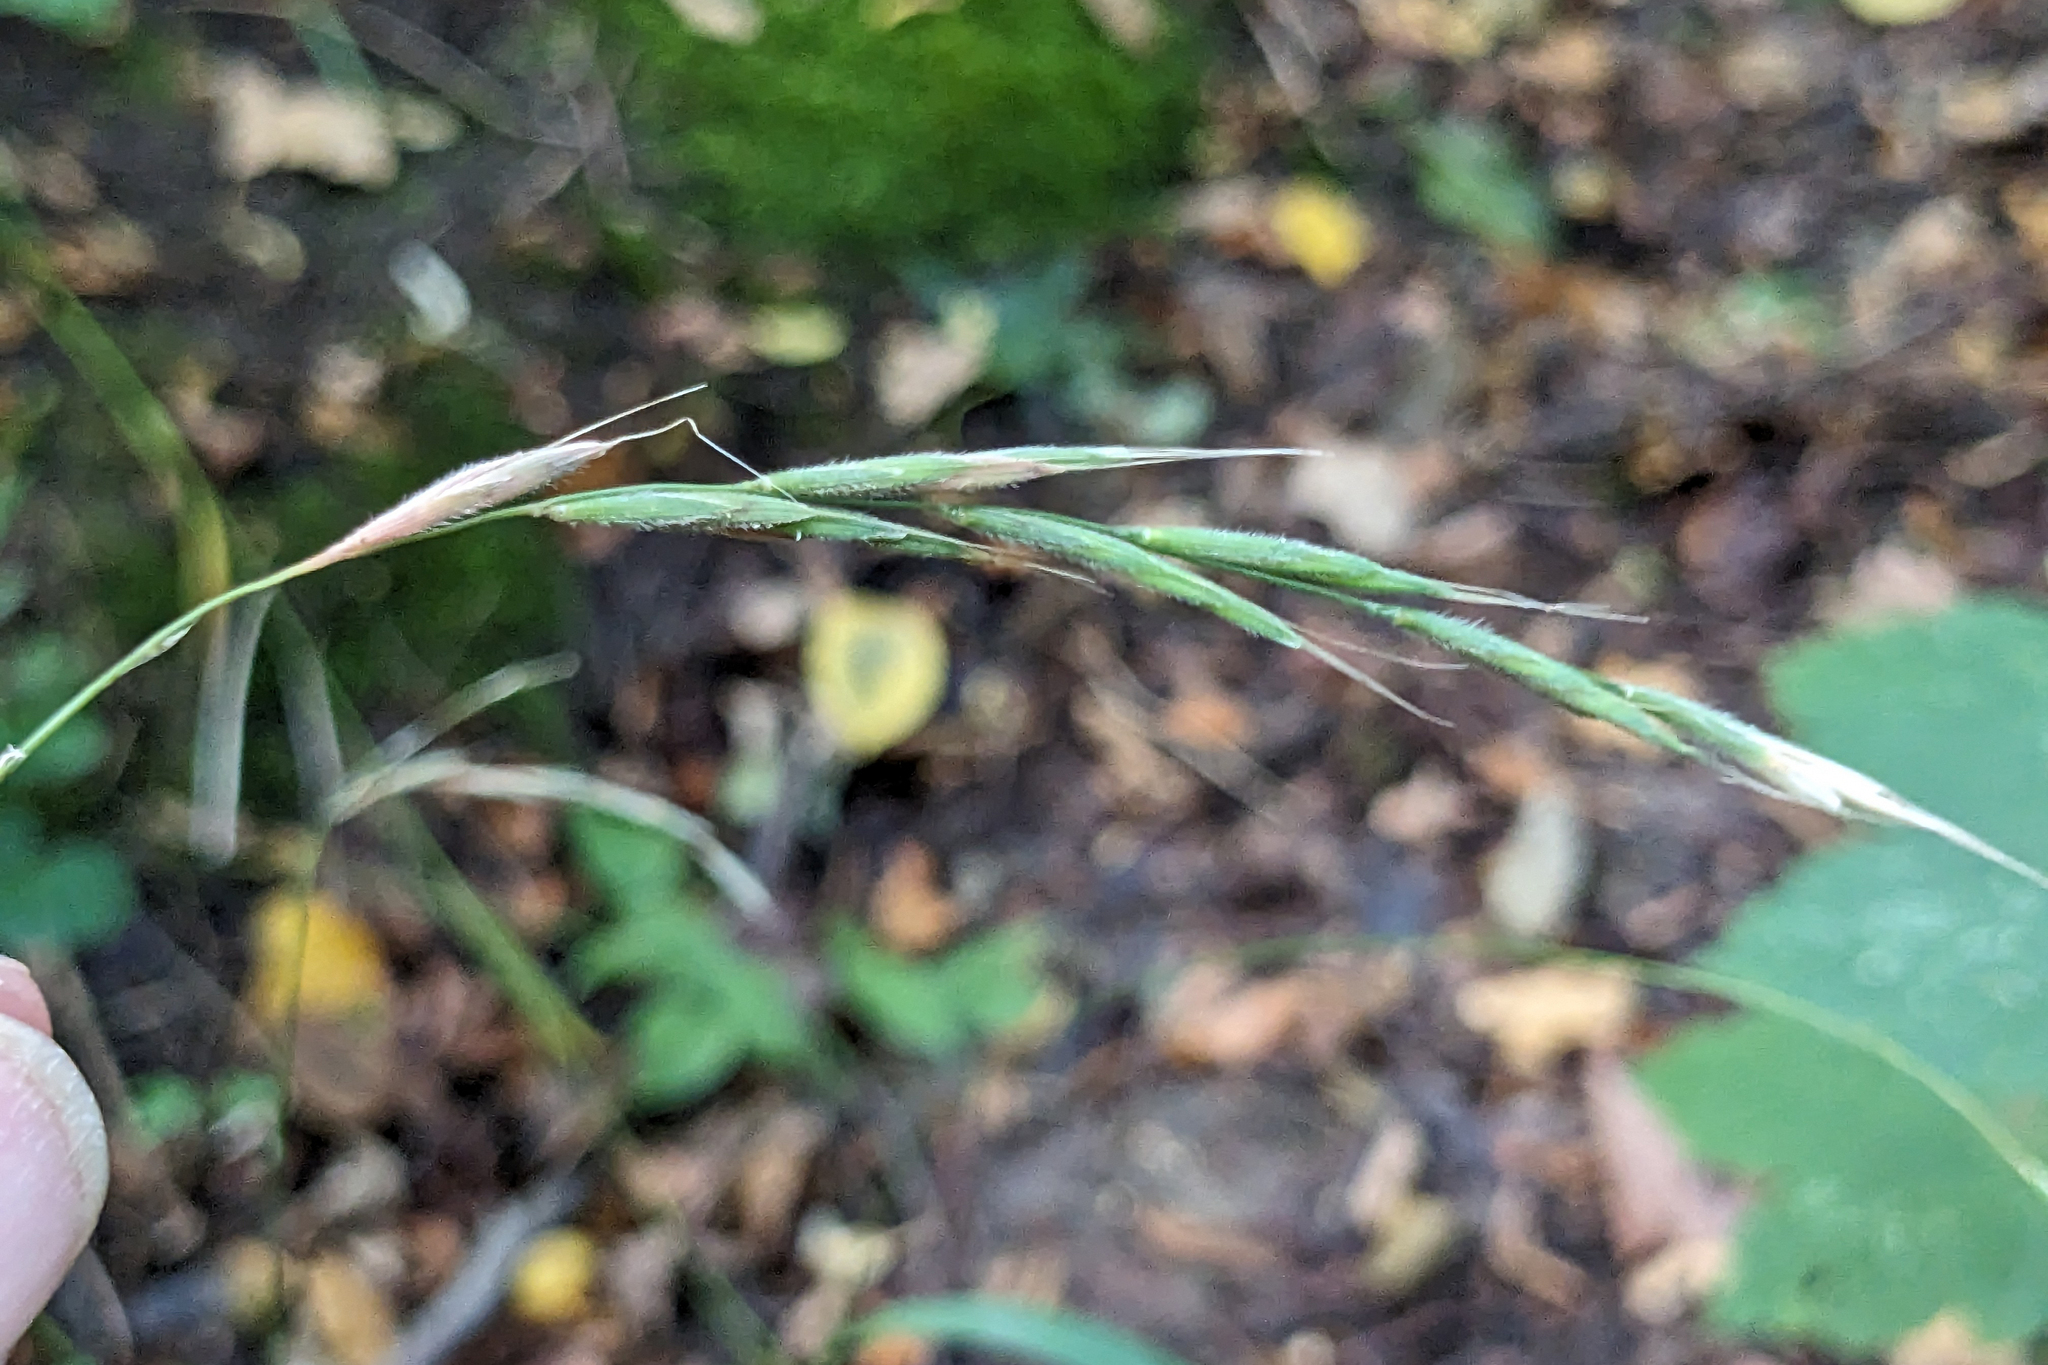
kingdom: Plantae
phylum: Tracheophyta
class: Liliopsida
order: Poales
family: Poaceae
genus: Brachypodium
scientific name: Brachypodium sylvaticum
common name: False-brome
